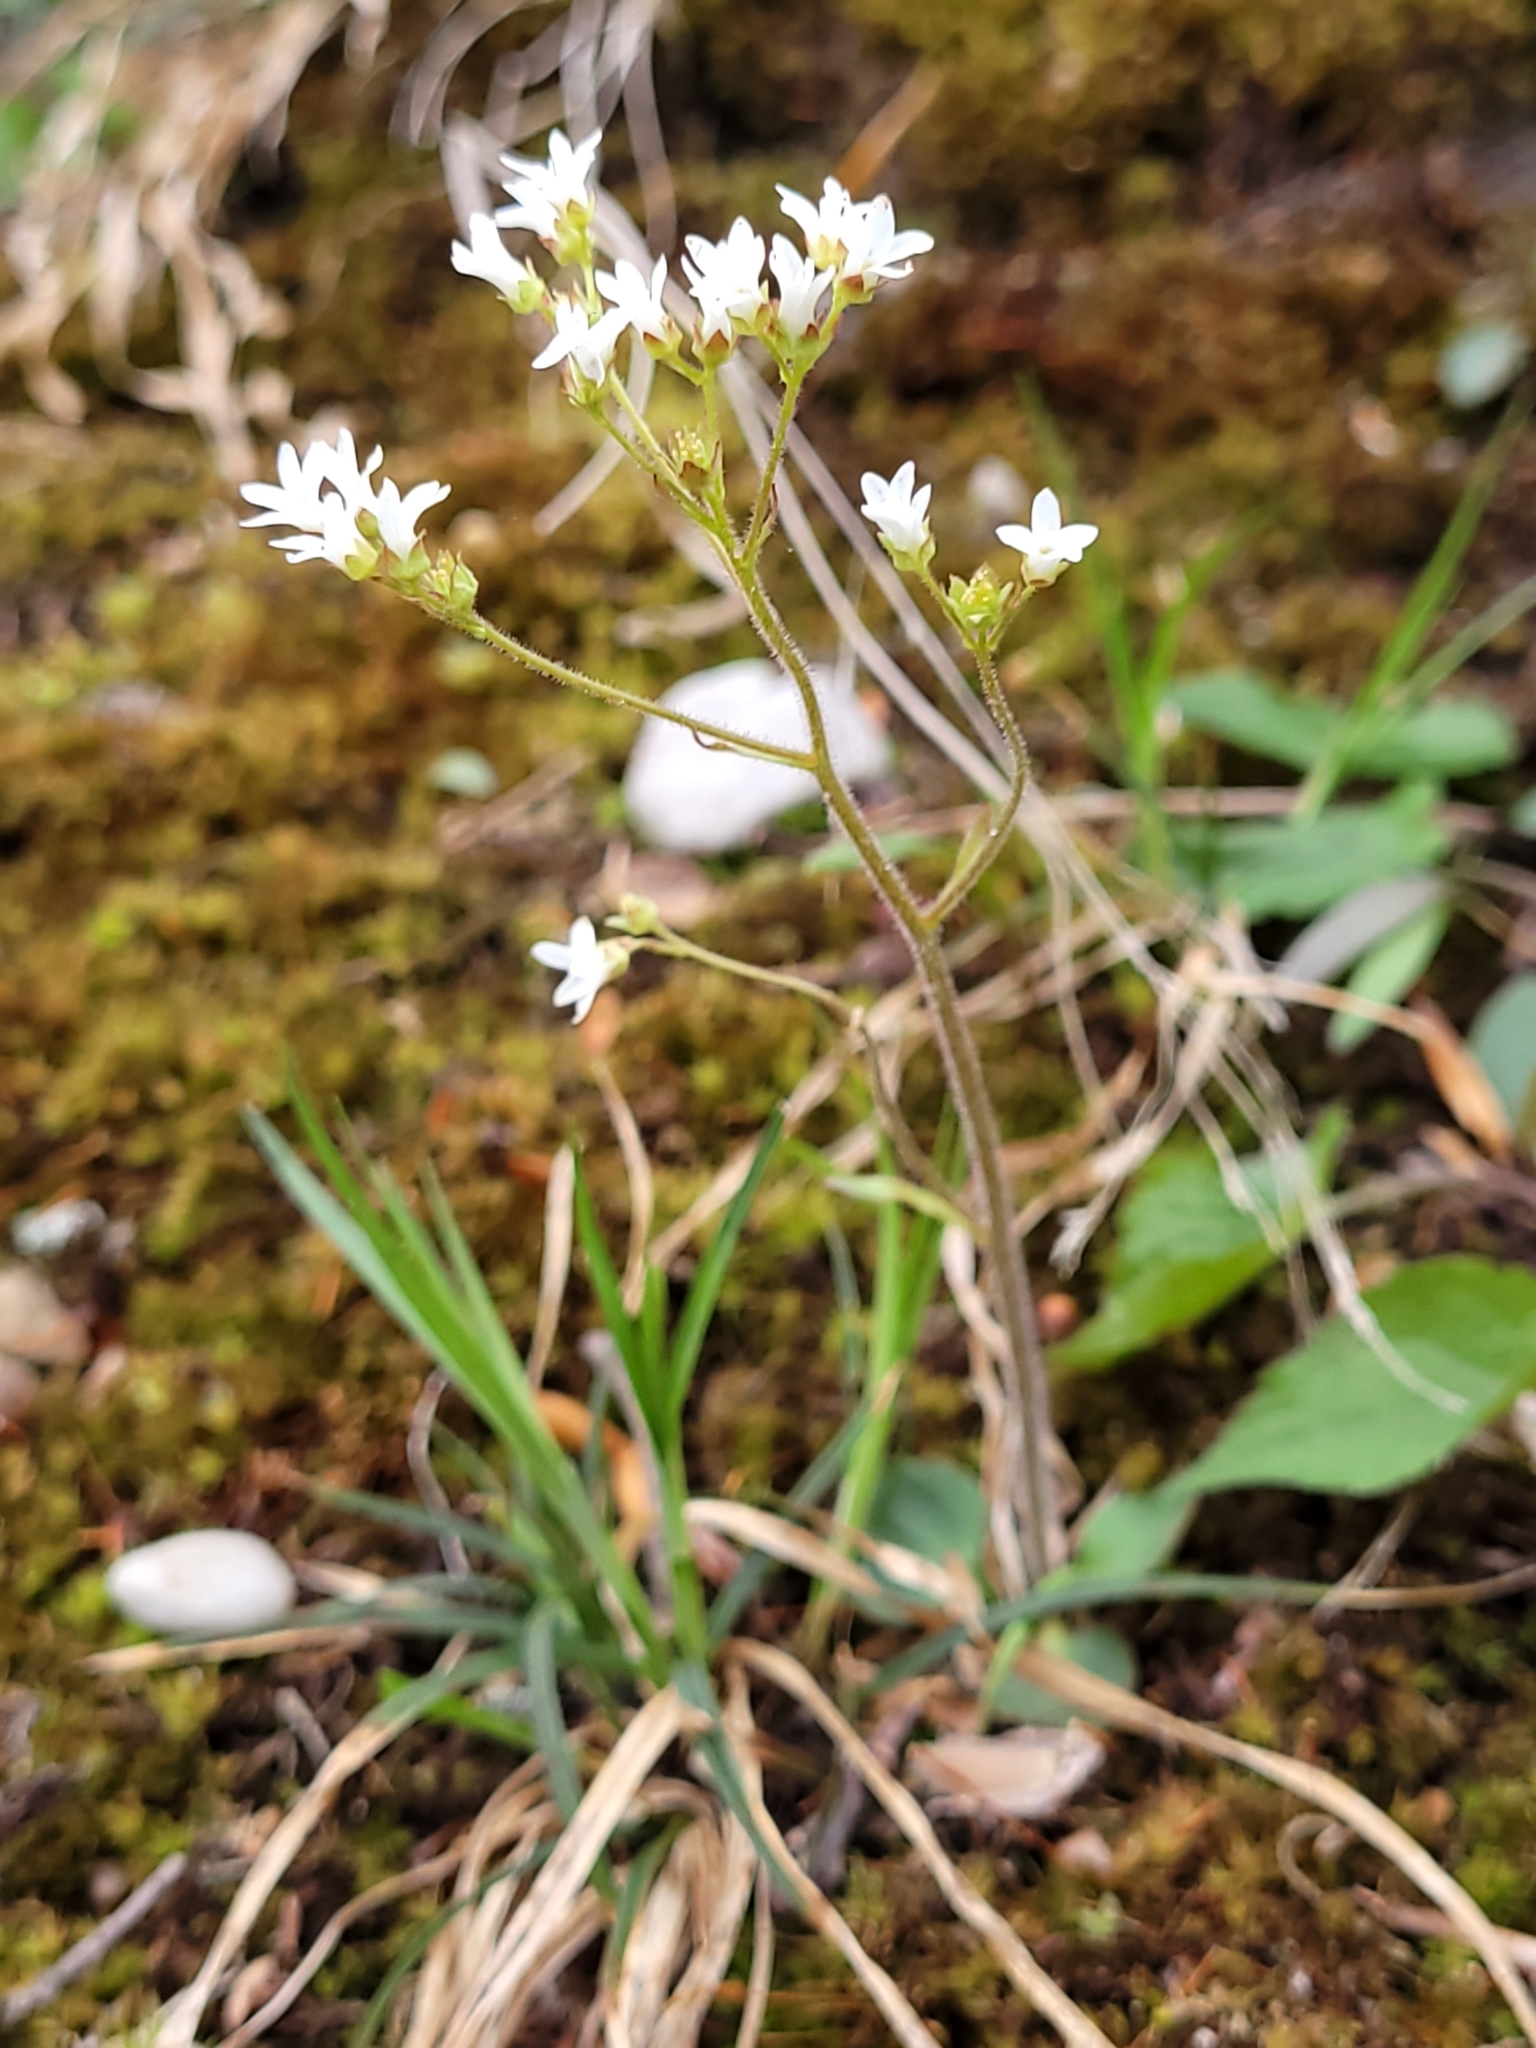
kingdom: Plantae
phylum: Tracheophyta
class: Magnoliopsida
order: Saxifragales
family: Saxifragaceae
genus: Micranthes
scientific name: Micranthes virginiensis
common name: Early saxifrage
